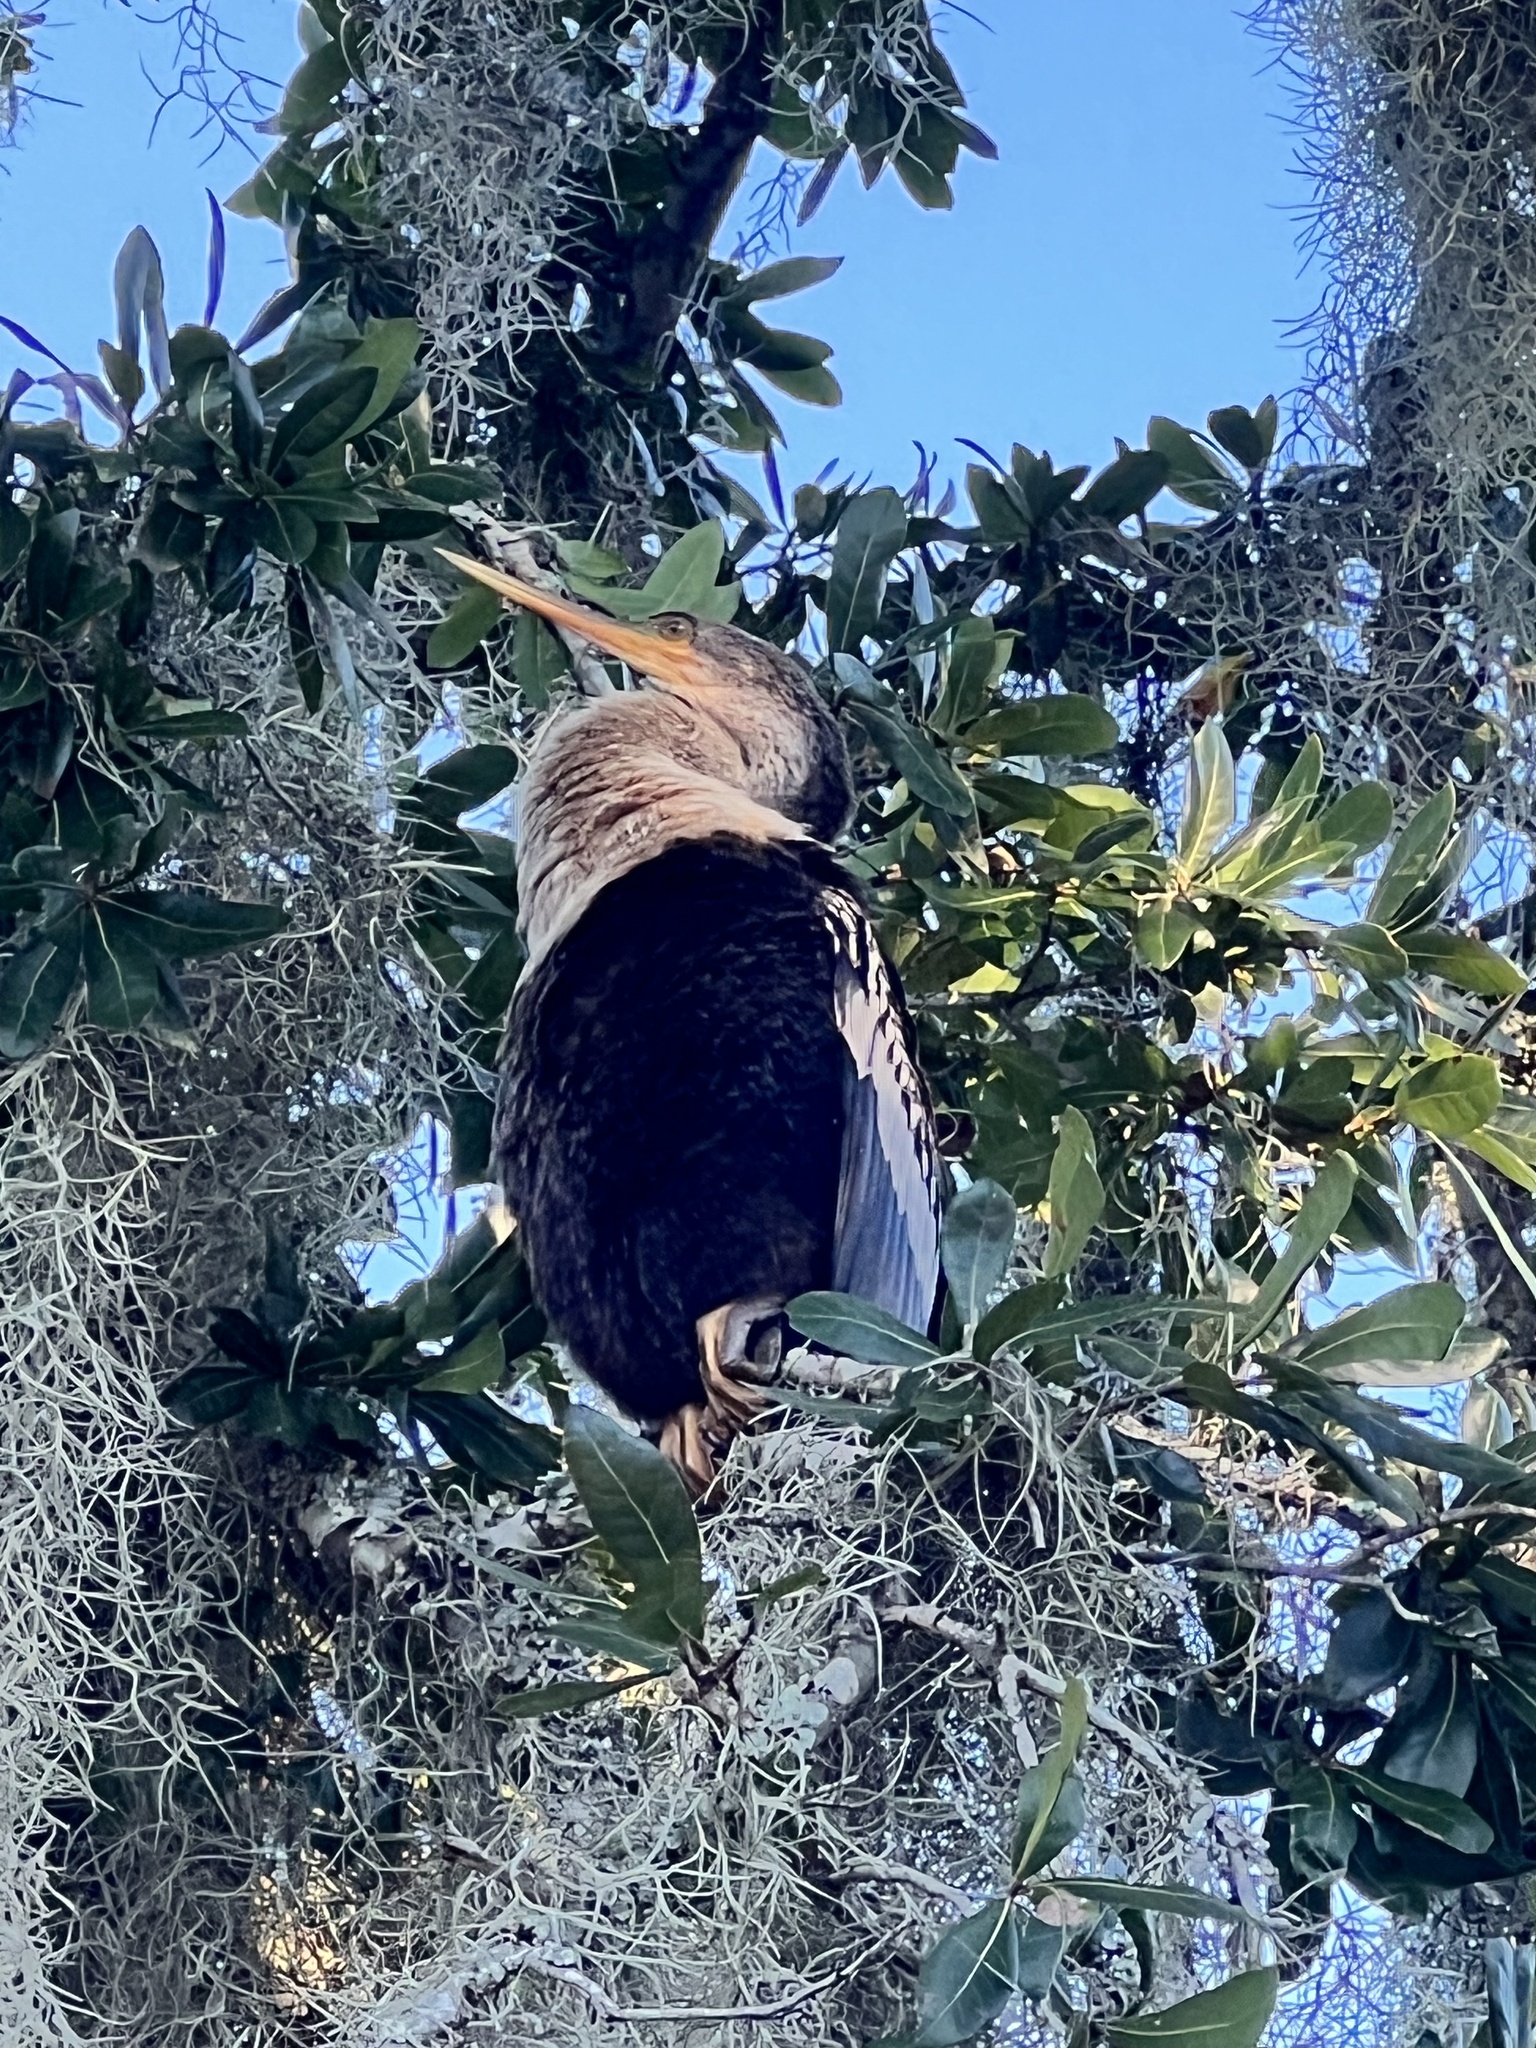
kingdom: Animalia
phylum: Chordata
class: Aves
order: Suliformes
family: Anhingidae
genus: Anhinga
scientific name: Anhinga anhinga
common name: Anhinga
